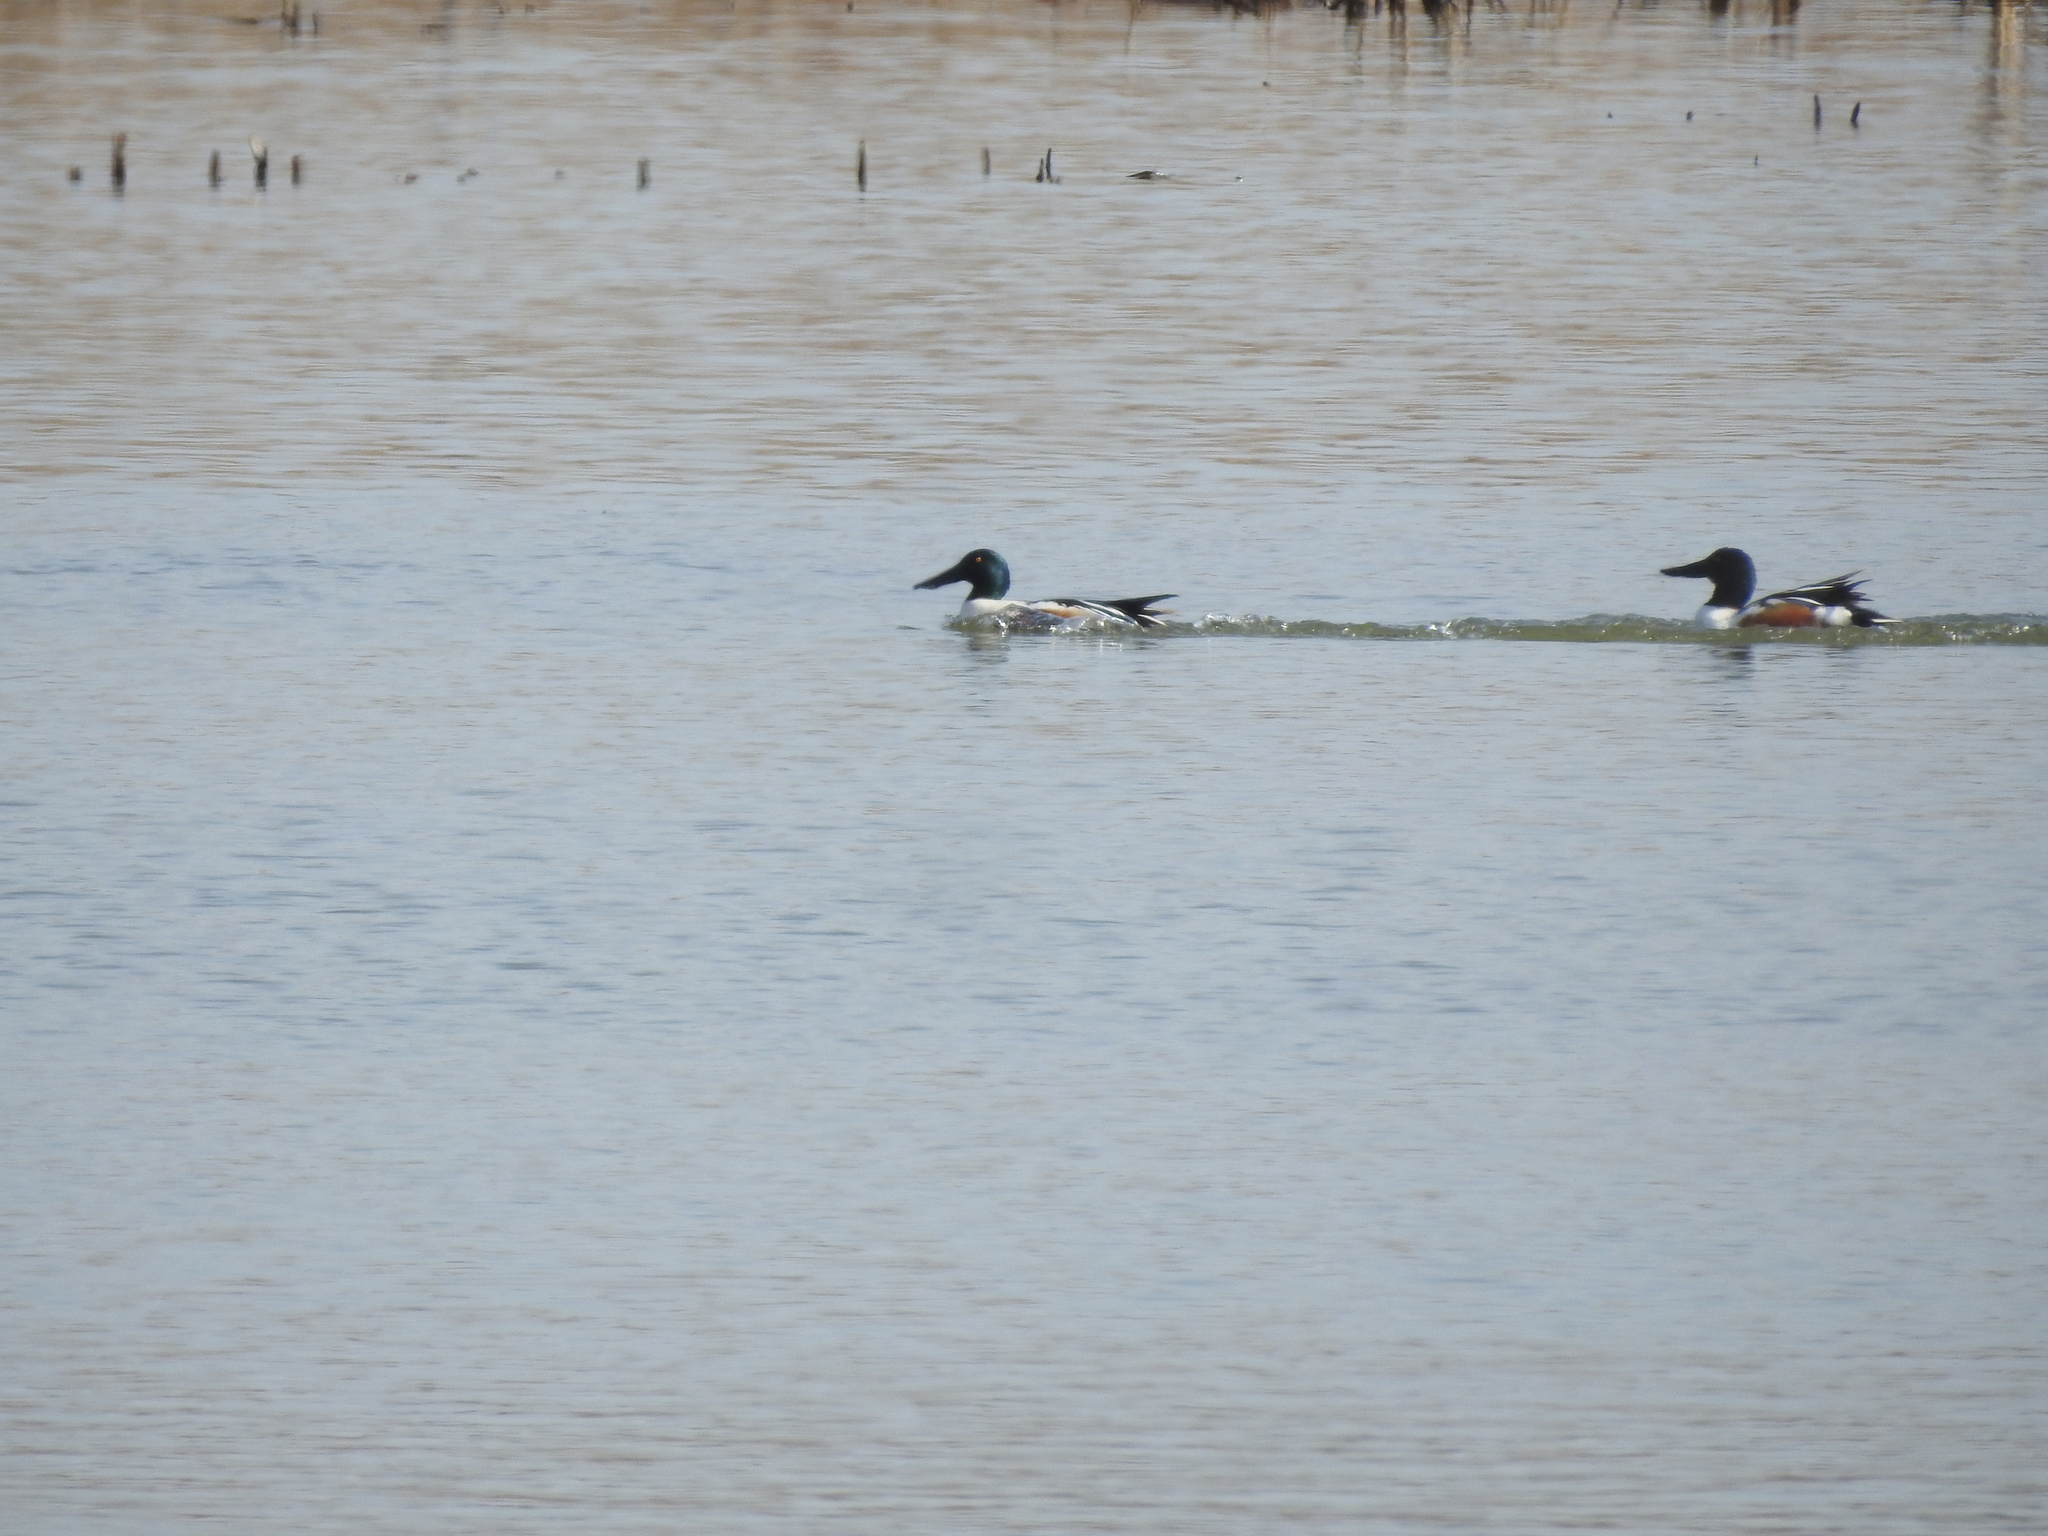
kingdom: Animalia
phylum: Chordata
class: Aves
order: Anseriformes
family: Anatidae
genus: Spatula
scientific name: Spatula clypeata
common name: Northern shoveler
